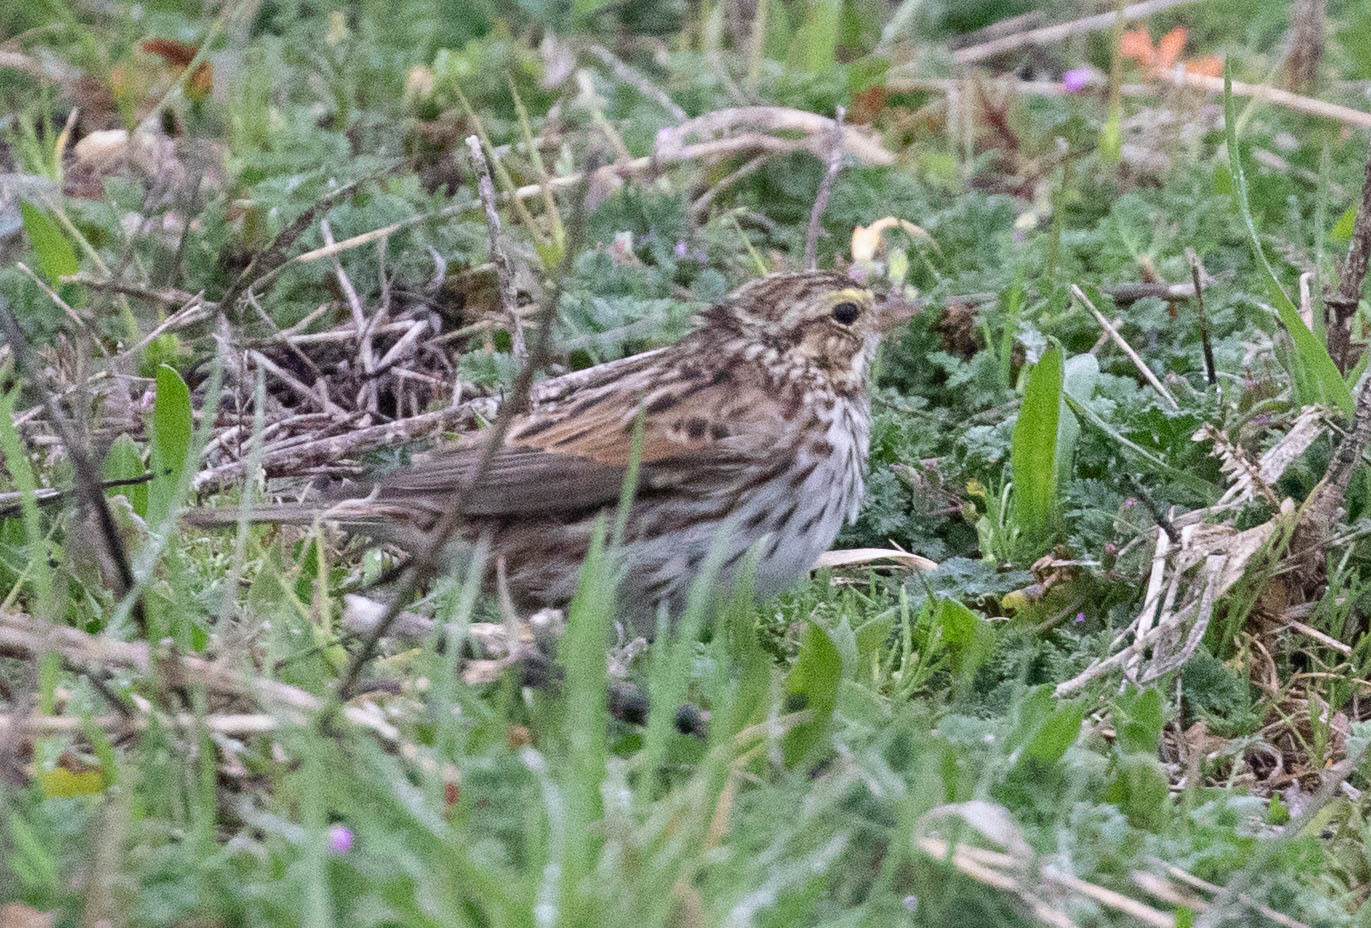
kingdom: Animalia
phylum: Chordata
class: Aves
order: Passeriformes
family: Passerellidae
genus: Passerculus
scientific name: Passerculus sandwichensis
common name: Savannah sparrow
